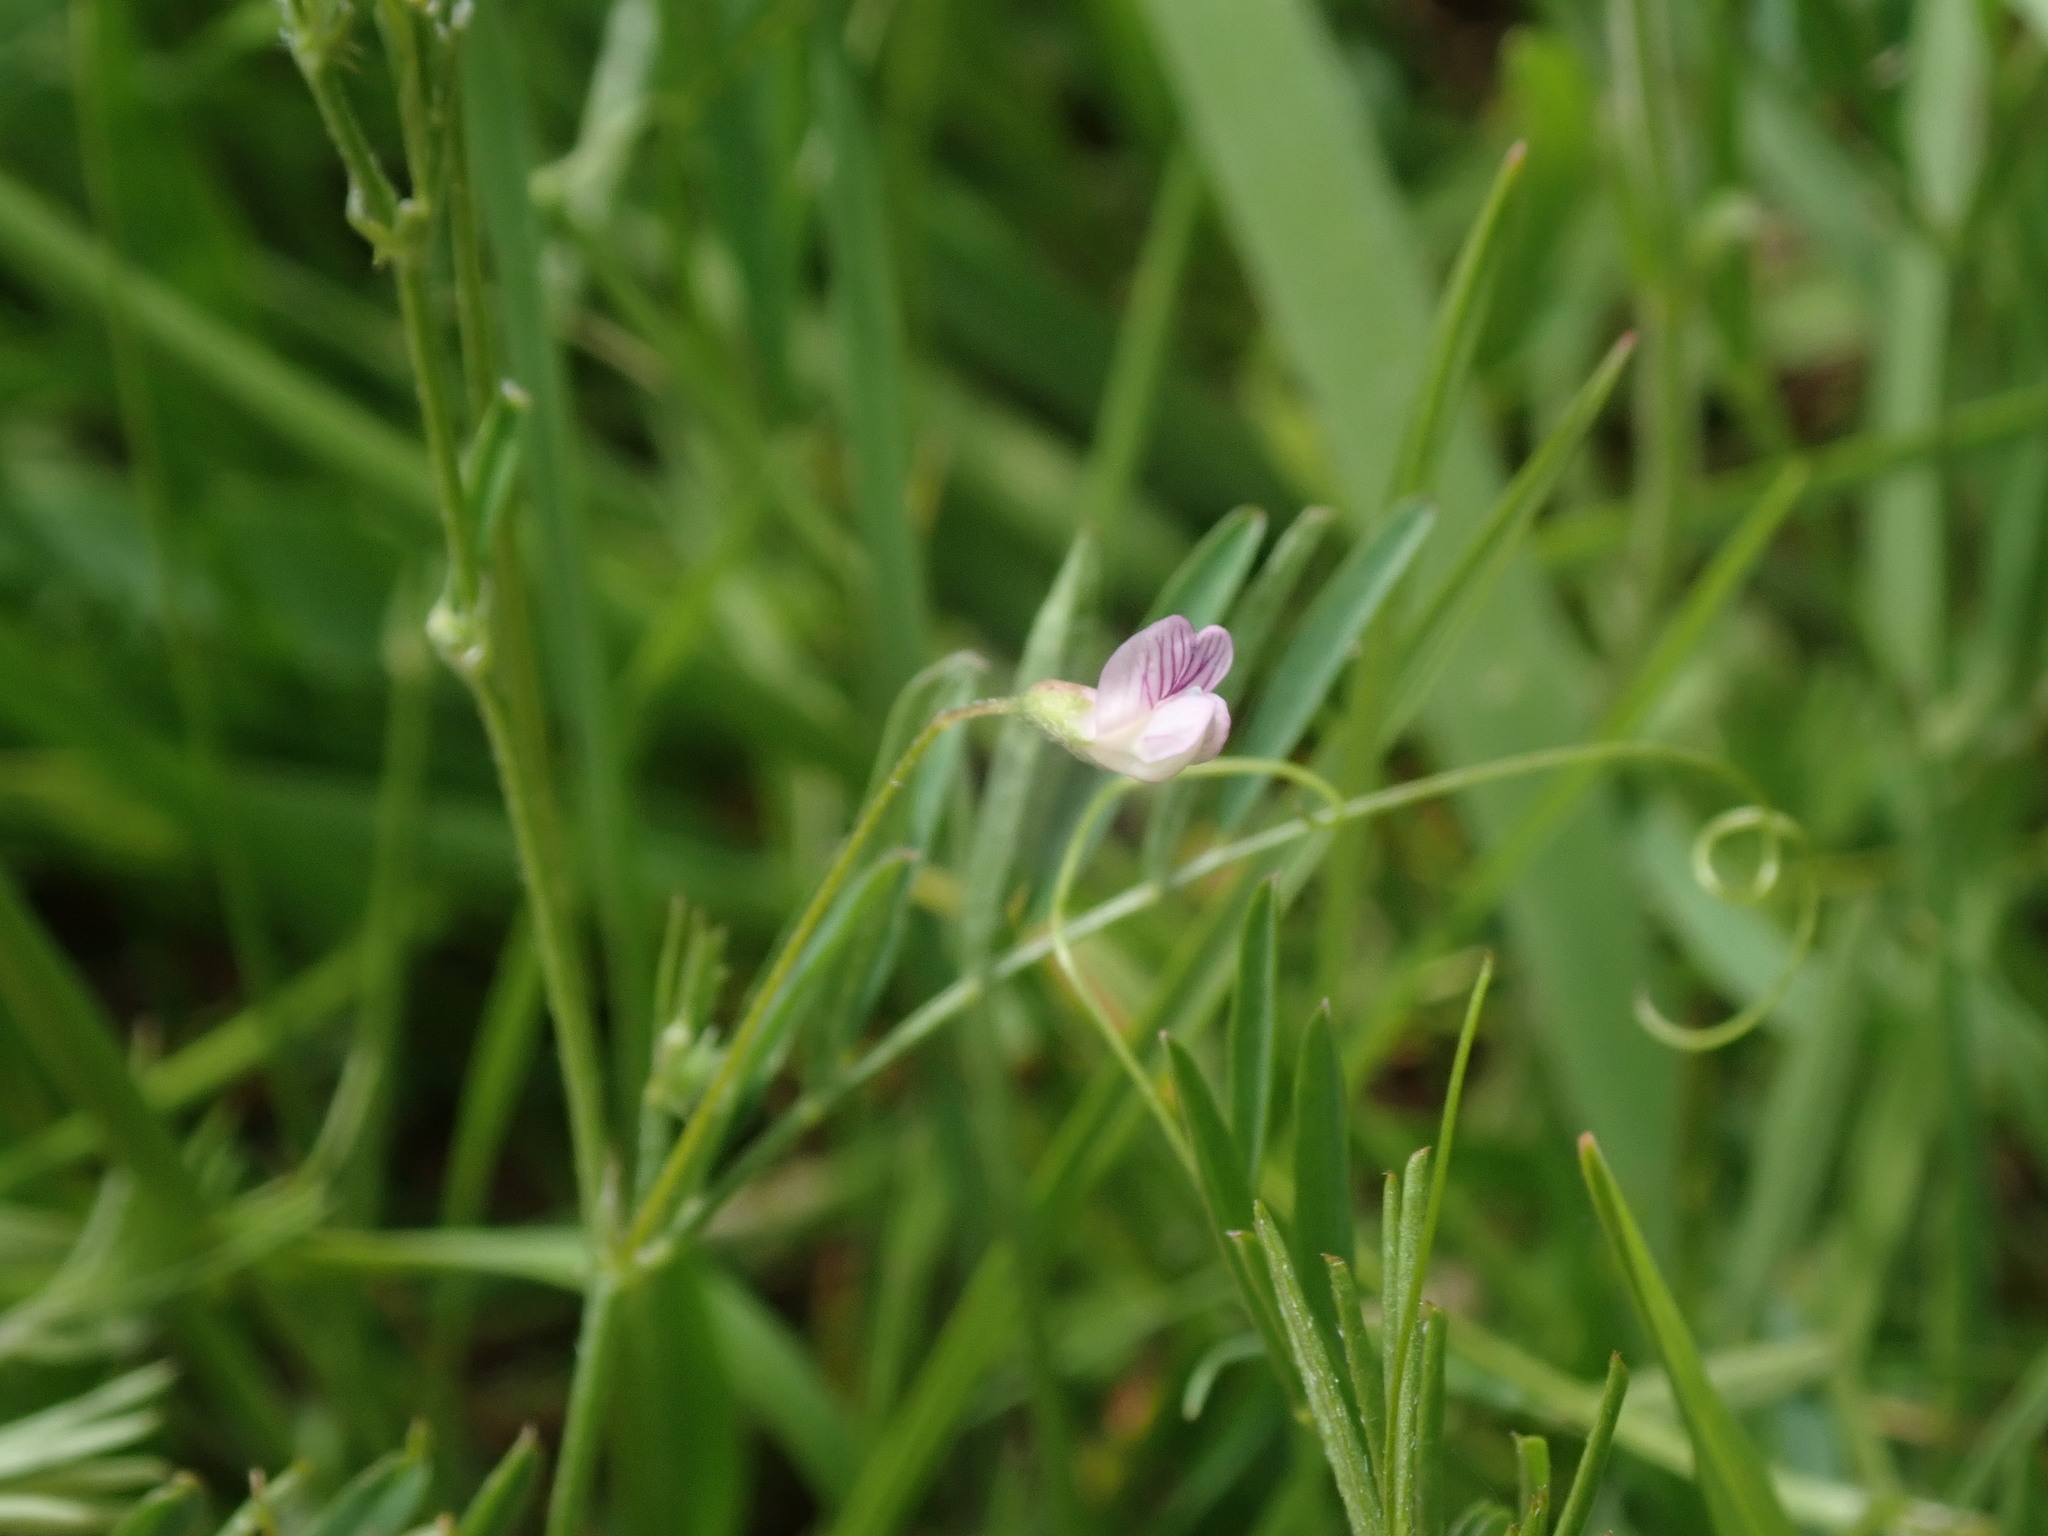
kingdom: Plantae
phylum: Tracheophyta
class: Magnoliopsida
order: Fabales
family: Fabaceae
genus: Vicia
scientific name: Vicia tetrasperma
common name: Smooth tare
